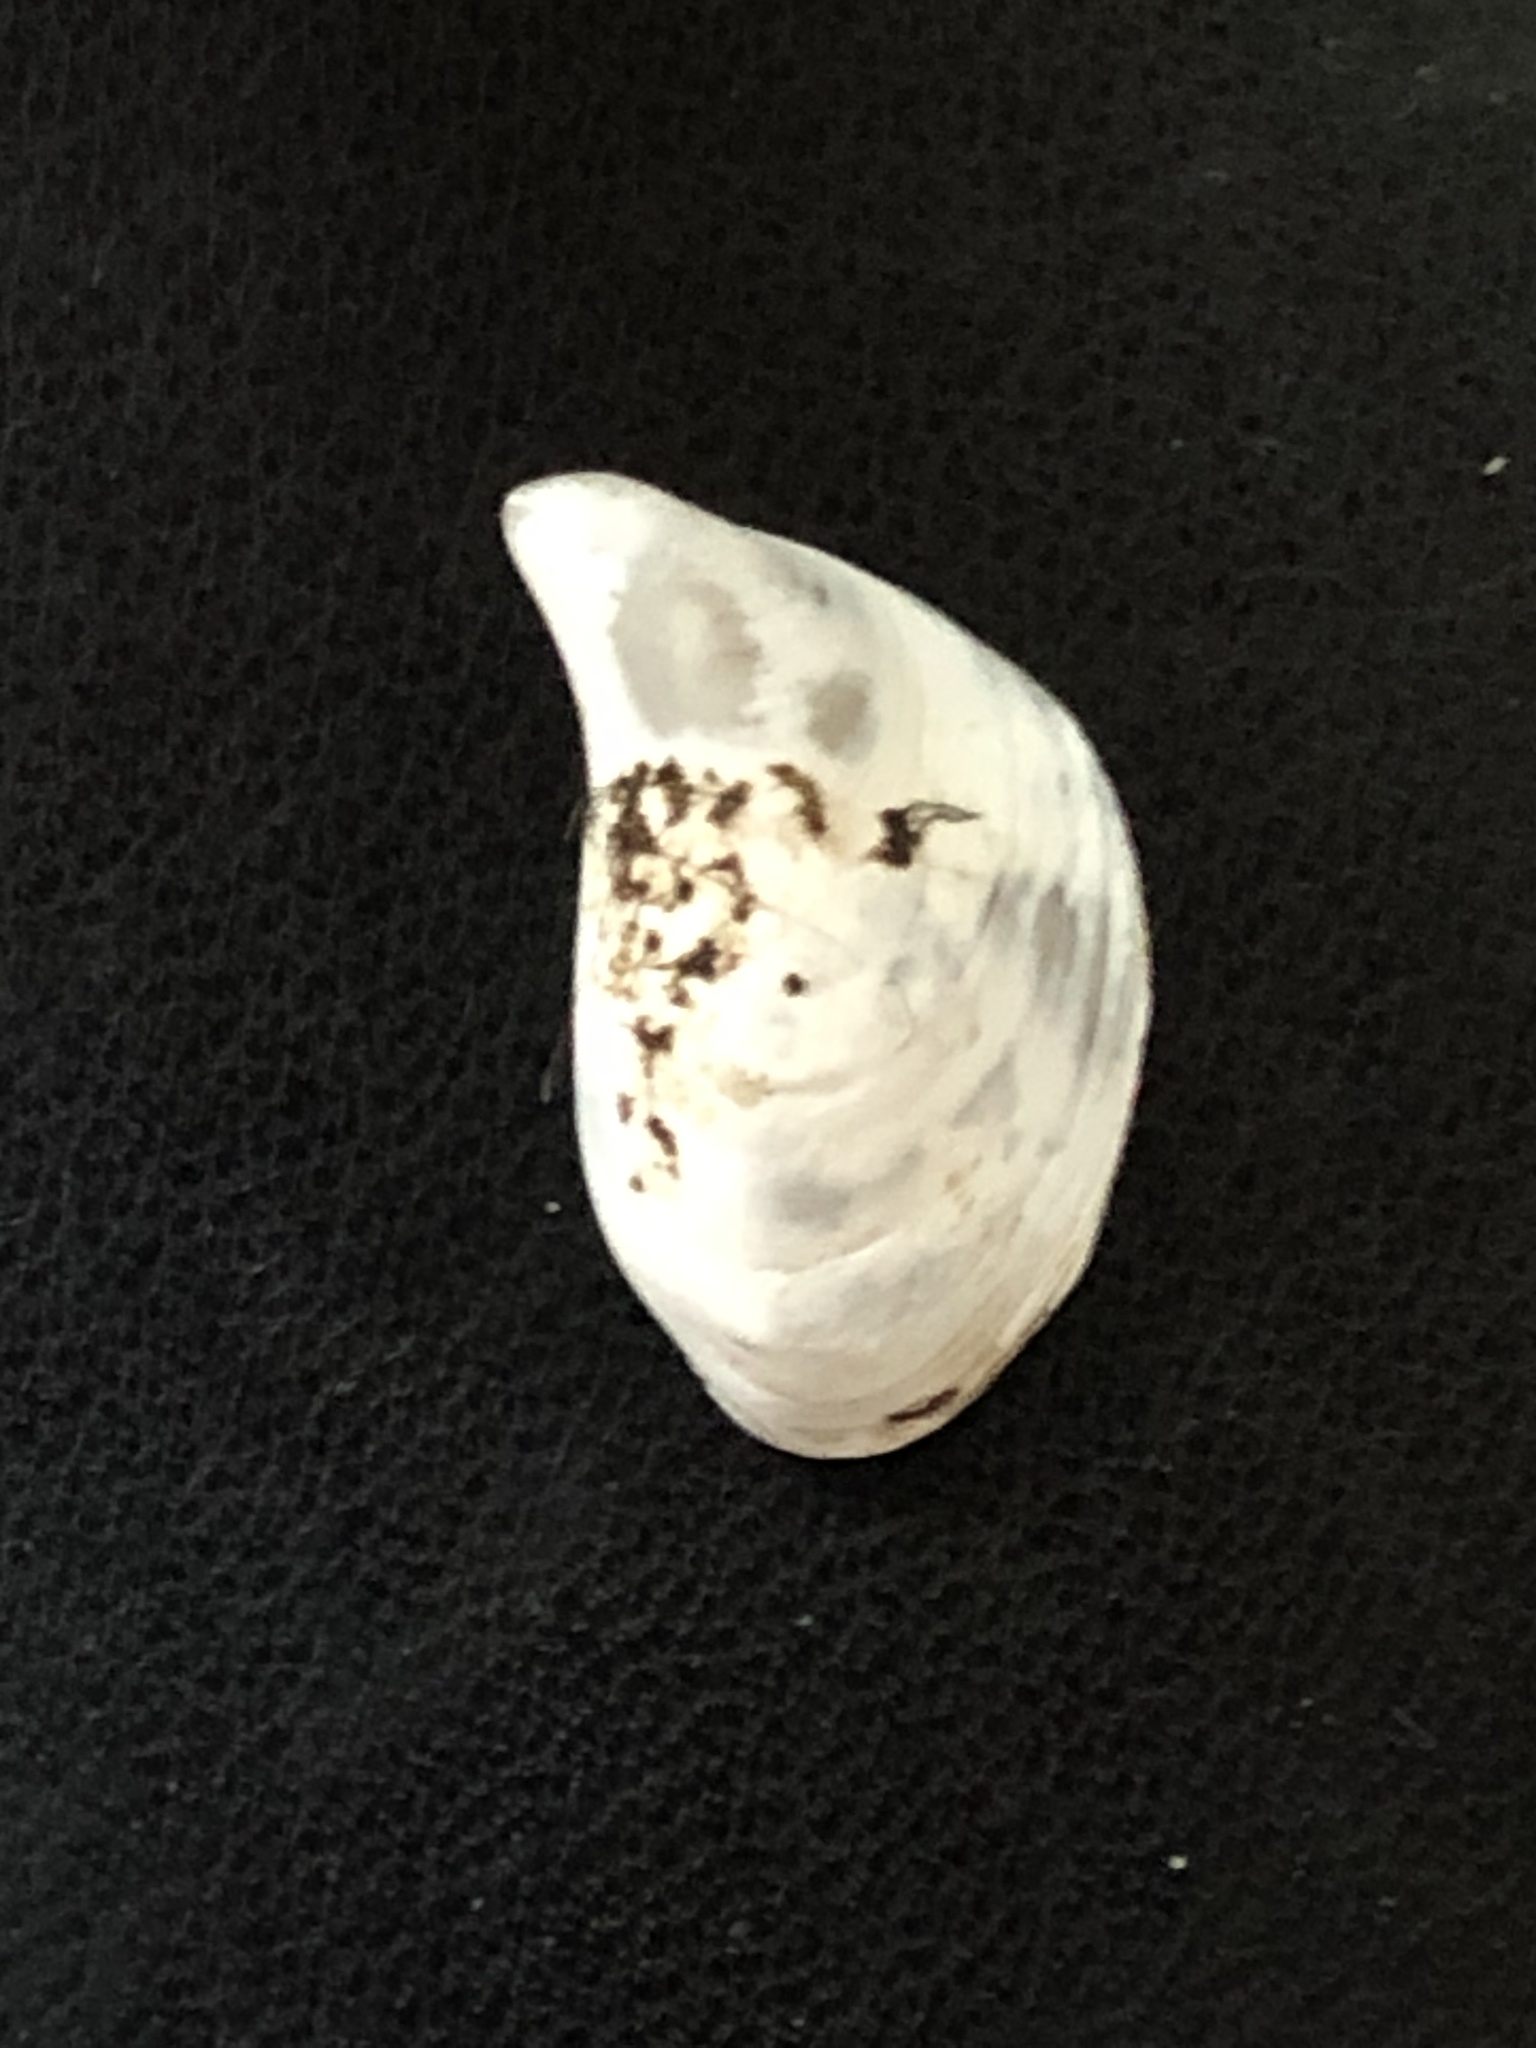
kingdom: Animalia
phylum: Mollusca
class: Bivalvia
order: Myida
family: Dreissenidae
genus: Dreissena
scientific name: Dreissena bugensis
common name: Quagga mussel
